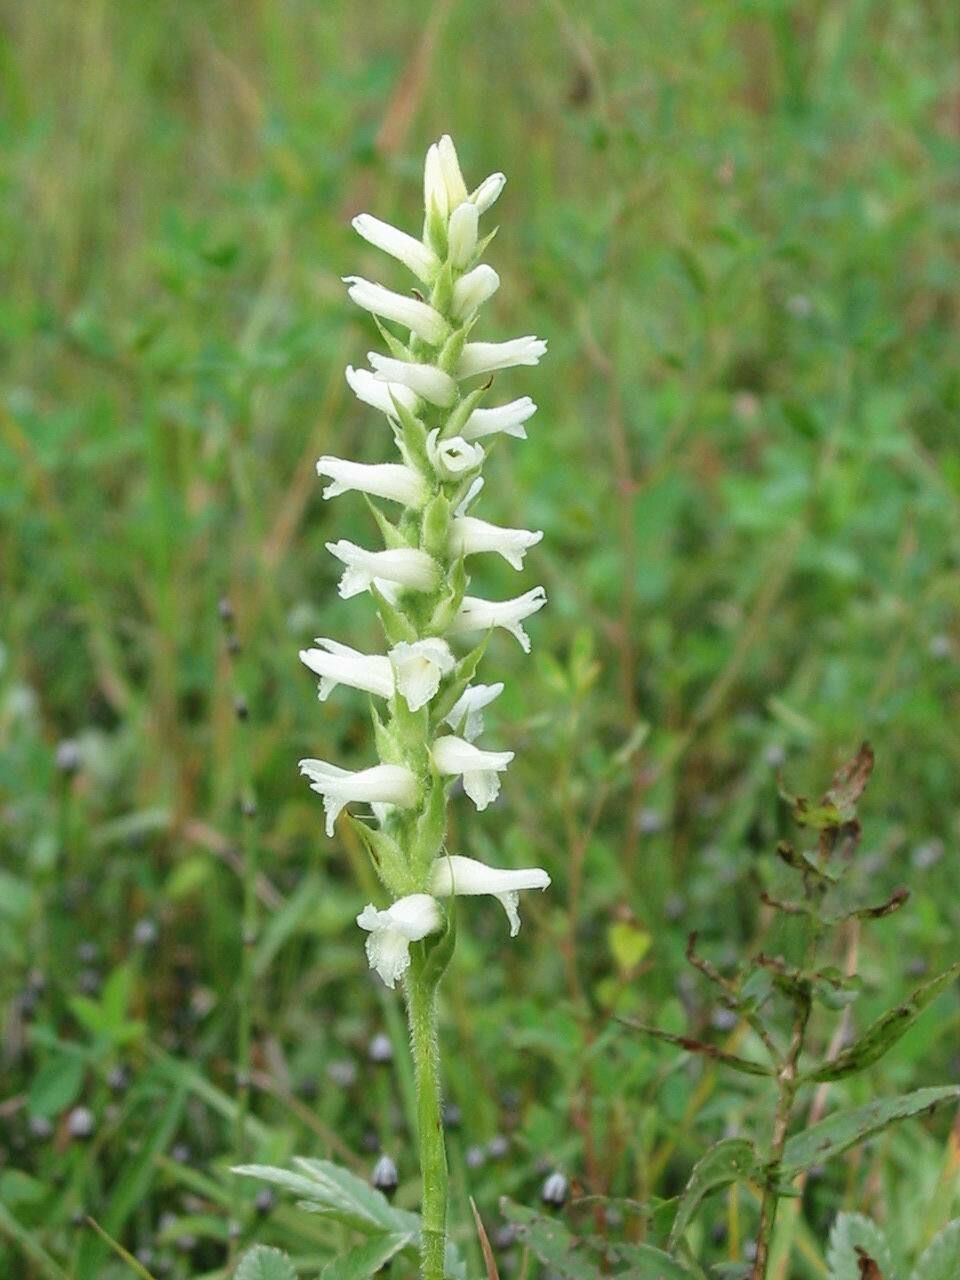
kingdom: Plantae
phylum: Tracheophyta
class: Liliopsida
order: Asparagales
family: Orchidaceae
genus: Spiranthes
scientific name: Spiranthes incurva
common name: Sphinx ladies'-tresses
